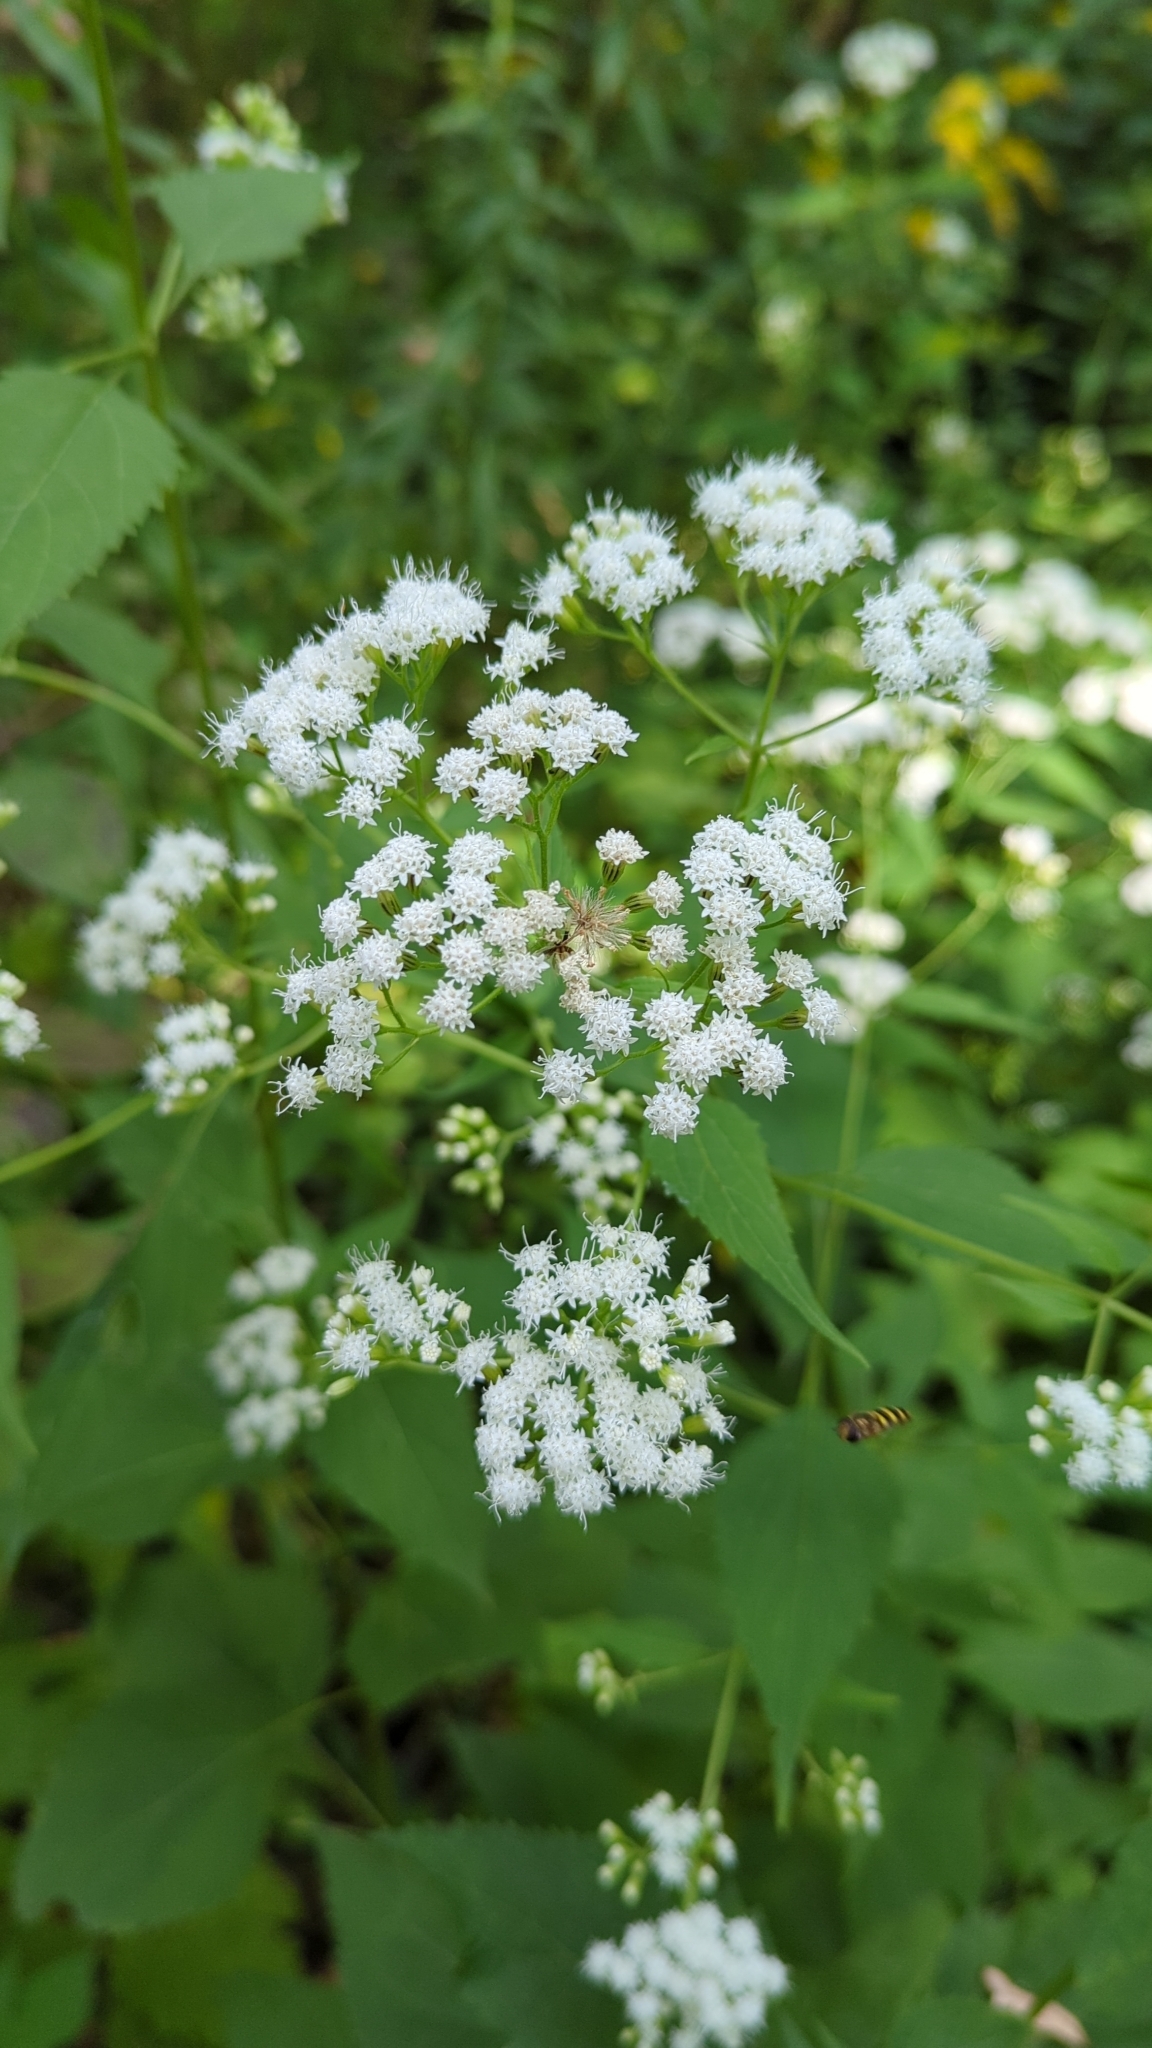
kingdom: Plantae
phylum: Tracheophyta
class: Magnoliopsida
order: Asterales
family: Asteraceae
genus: Ageratina
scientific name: Ageratina altissima
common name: White snakeroot
